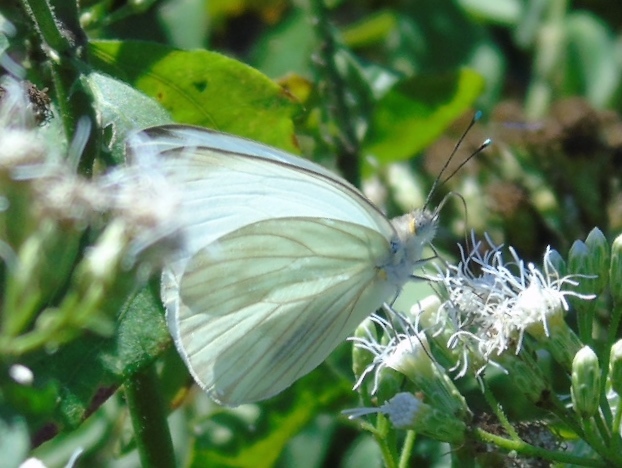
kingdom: Animalia
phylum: Arthropoda
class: Insecta
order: Lepidoptera
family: Pieridae
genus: Ascia
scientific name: Ascia monuste
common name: Great southern white
